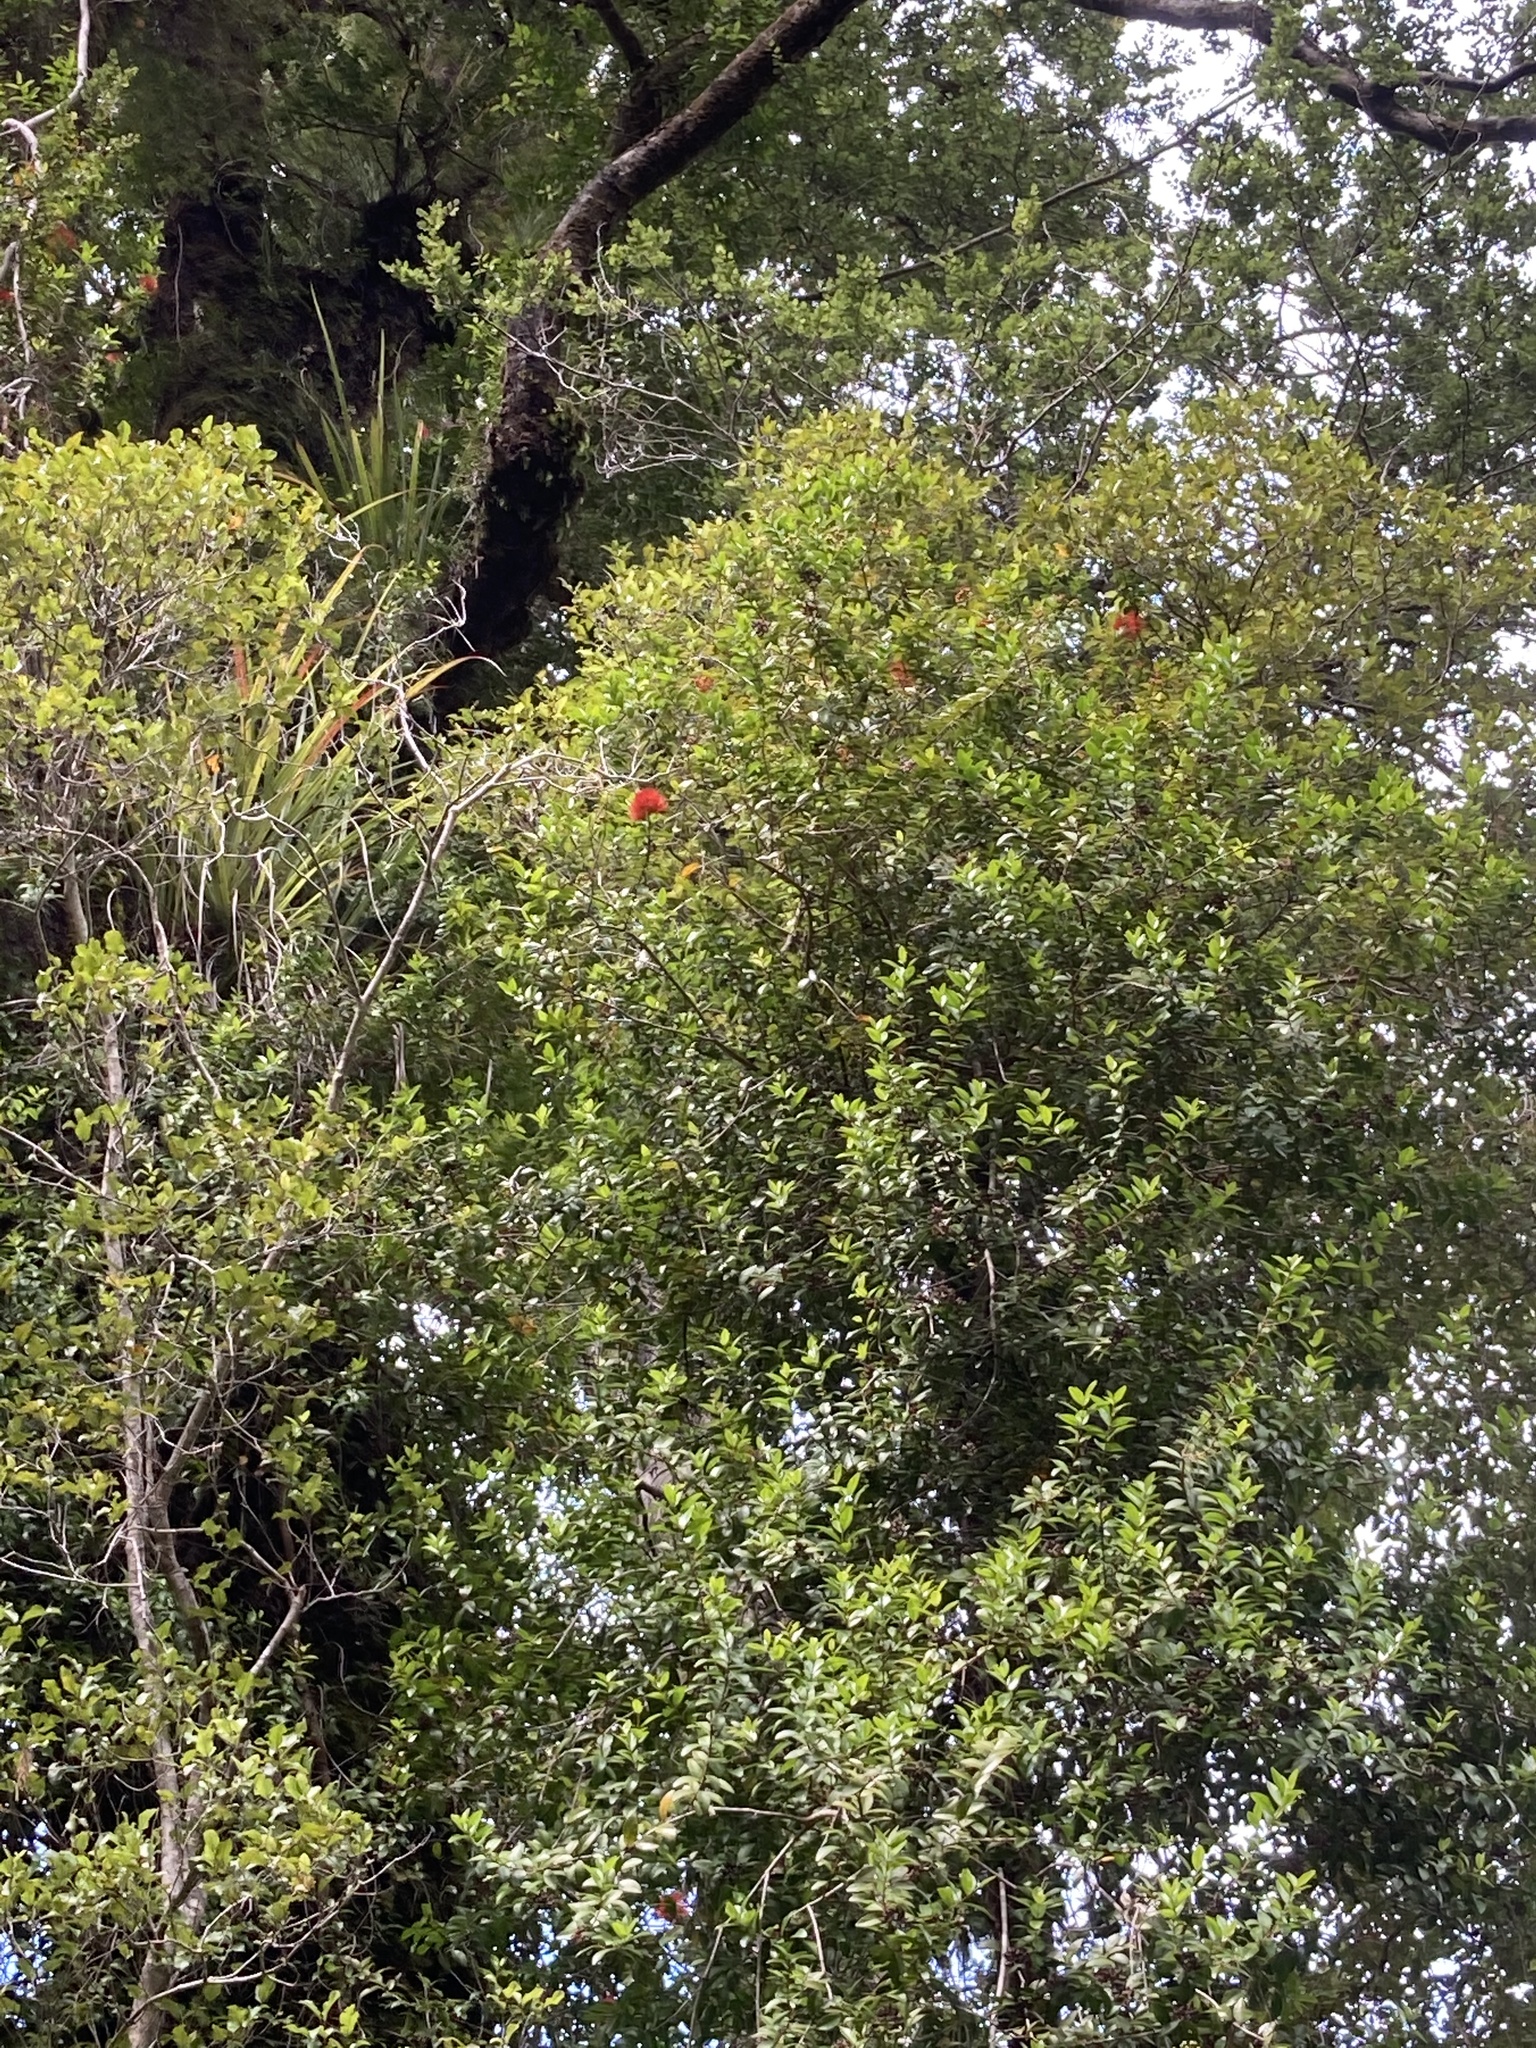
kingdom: Plantae
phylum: Tracheophyta
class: Magnoliopsida
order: Myrtales
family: Myrtaceae
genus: Metrosideros
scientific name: Metrosideros fulgens
